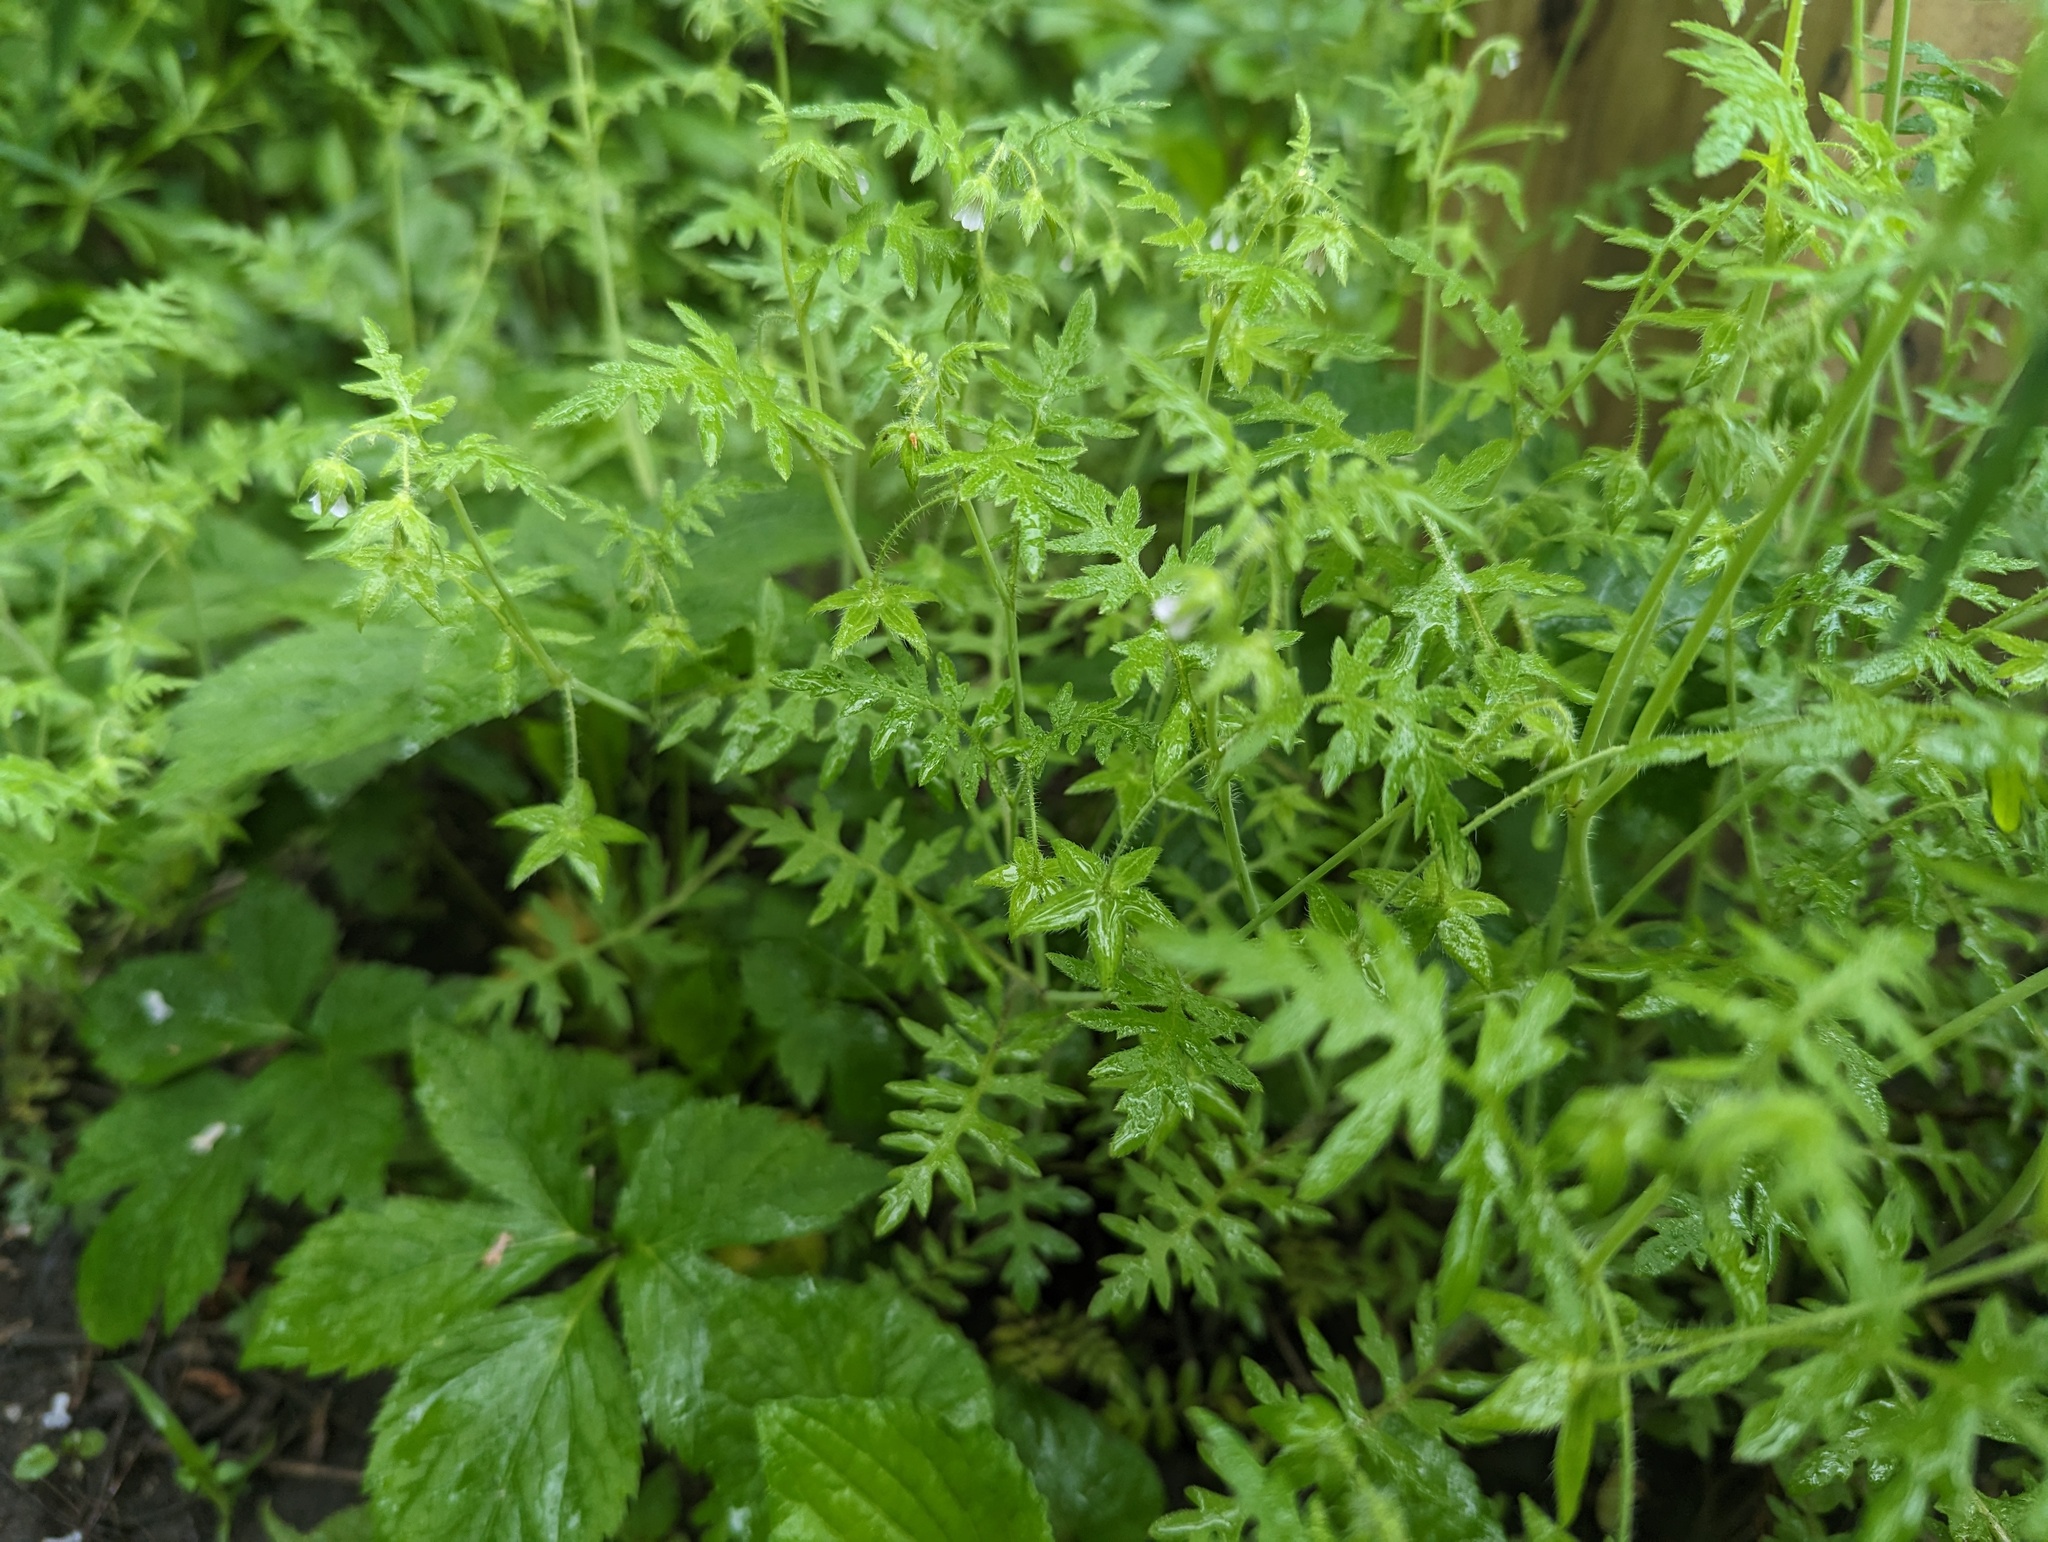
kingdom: Plantae
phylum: Tracheophyta
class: Magnoliopsida
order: Boraginales
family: Hydrophyllaceae
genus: Ellisia
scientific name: Ellisia nyctelea
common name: Aunt lucy
